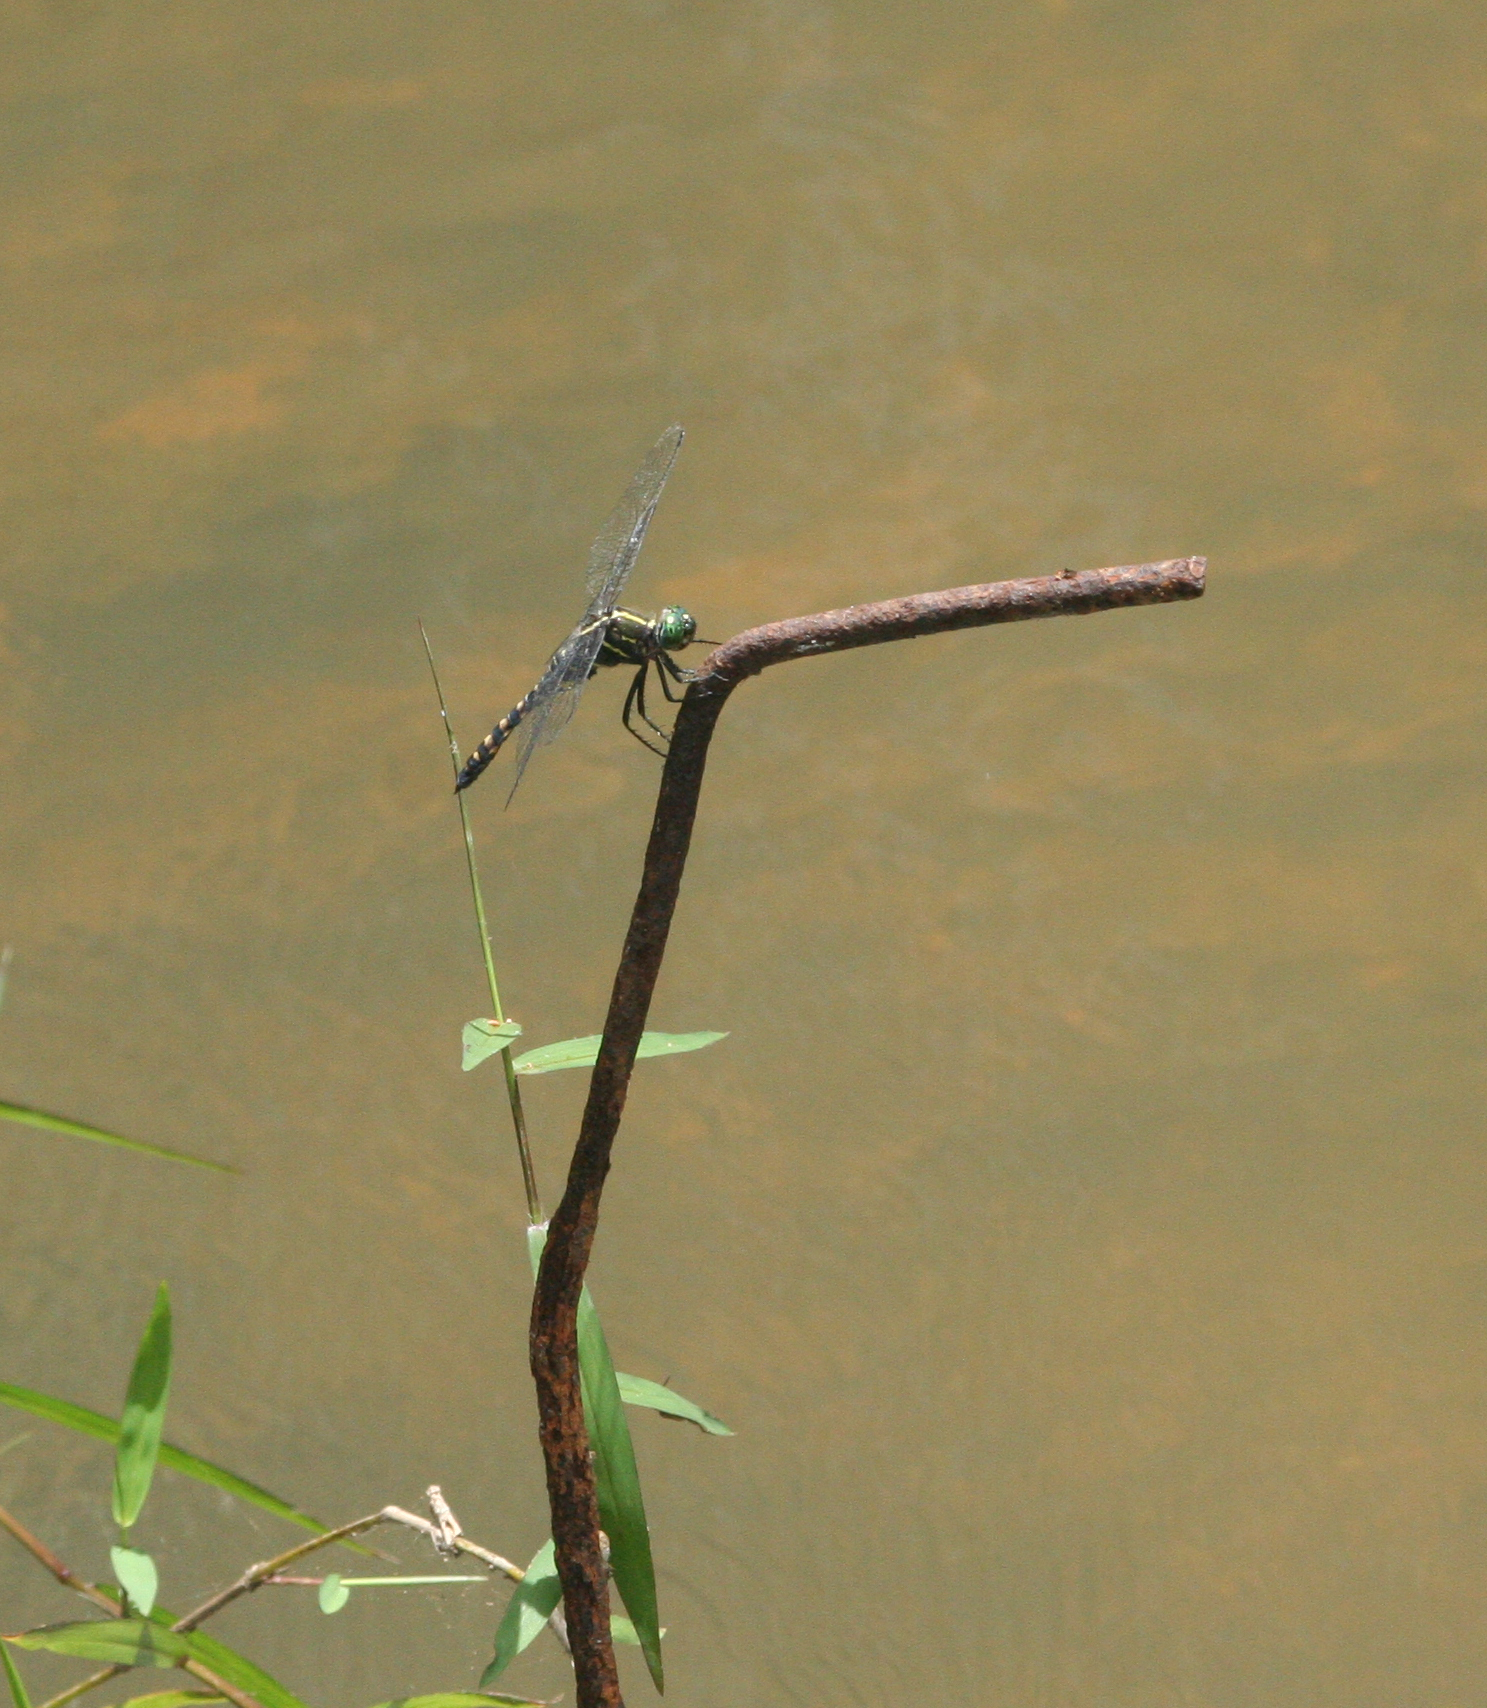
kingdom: Animalia
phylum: Arthropoda
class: Insecta
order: Odonata
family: Libellulidae
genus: Onychothemis
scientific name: Onychothemis testacea
